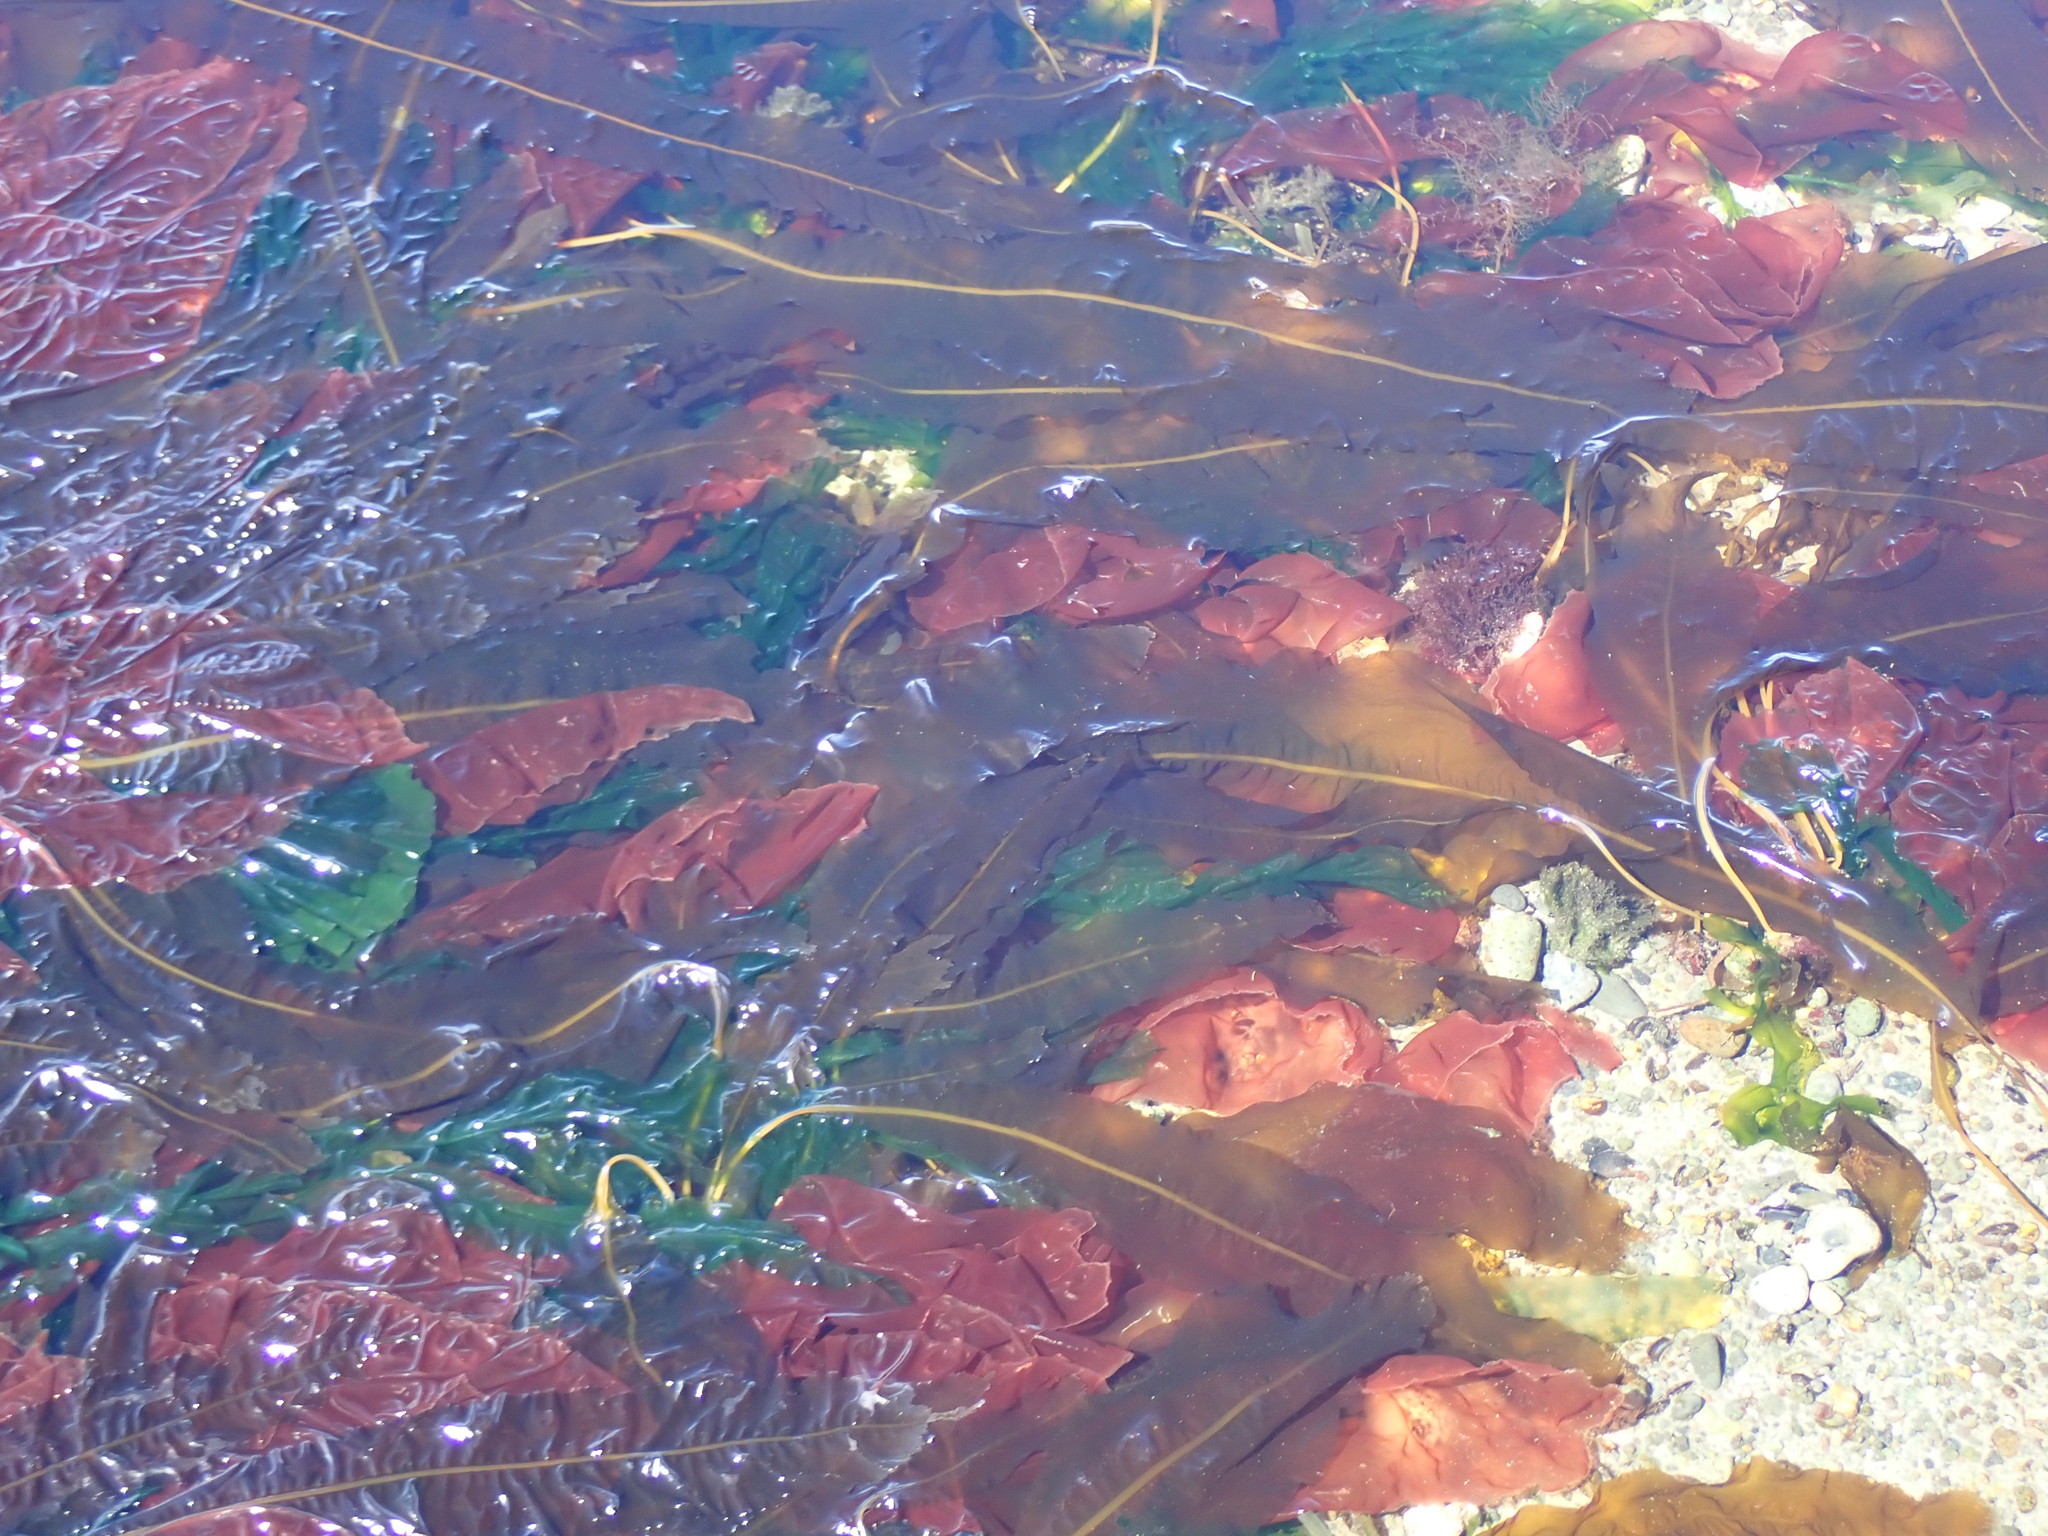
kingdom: Chromista
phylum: Ochrophyta
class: Phaeophyceae
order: Laminariales
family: Alariaceae
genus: Alaria
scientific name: Alaria marginata
